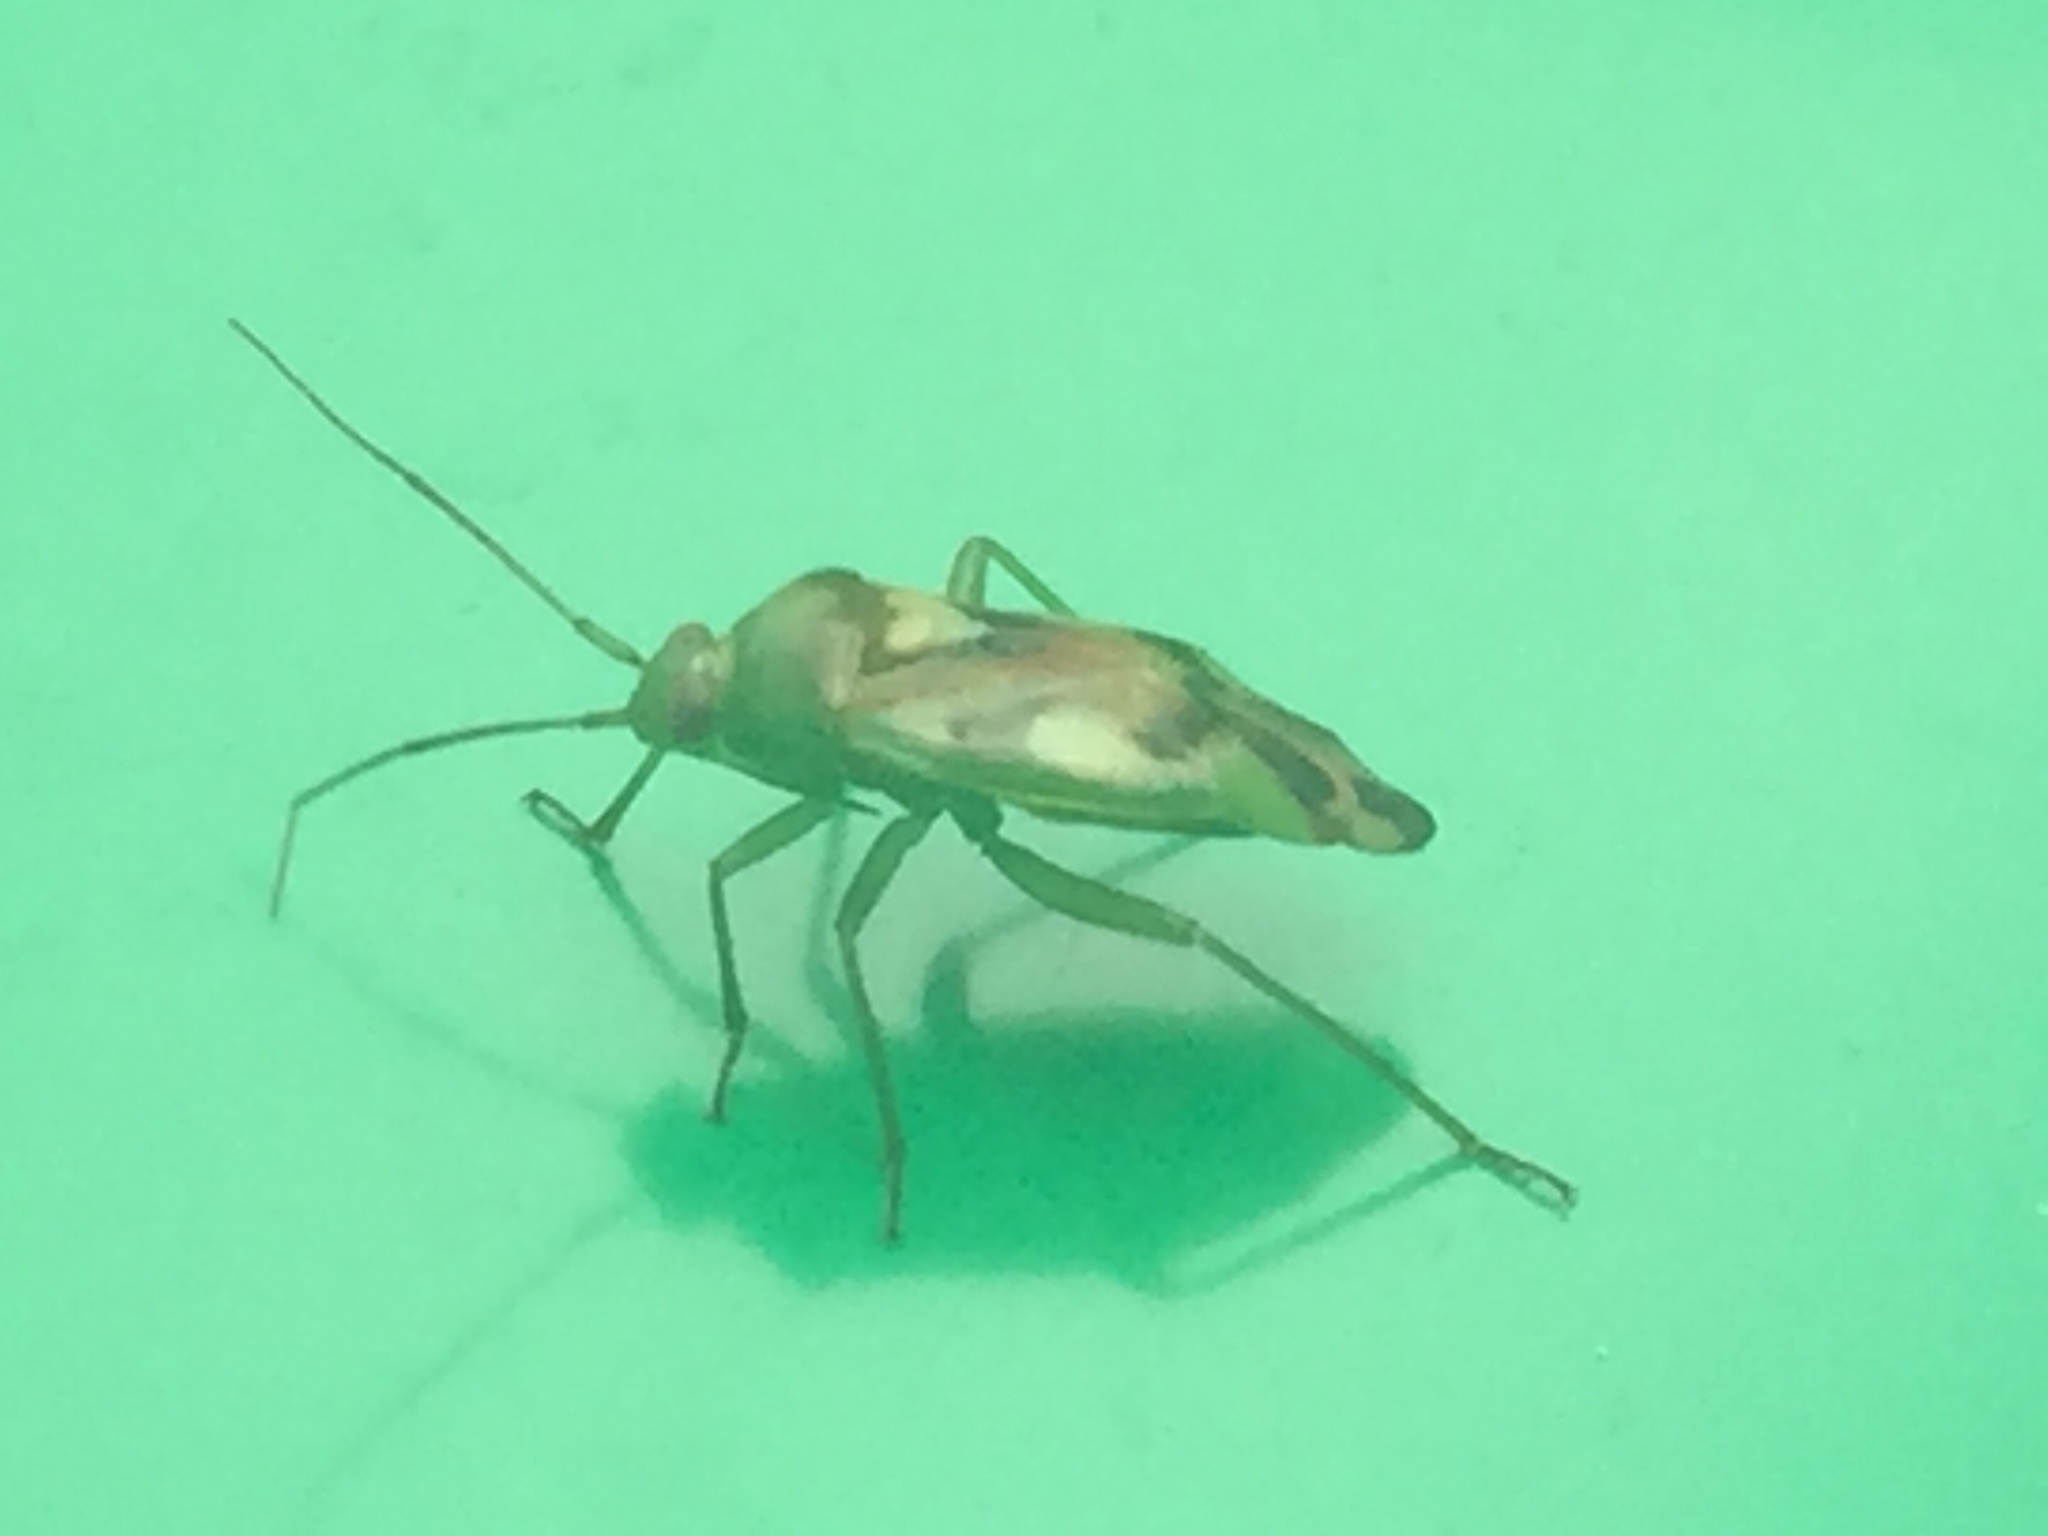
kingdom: Animalia
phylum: Arthropoda
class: Insecta
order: Hemiptera
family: Miridae
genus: Tuicoris
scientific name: Tuicoris excelsus
